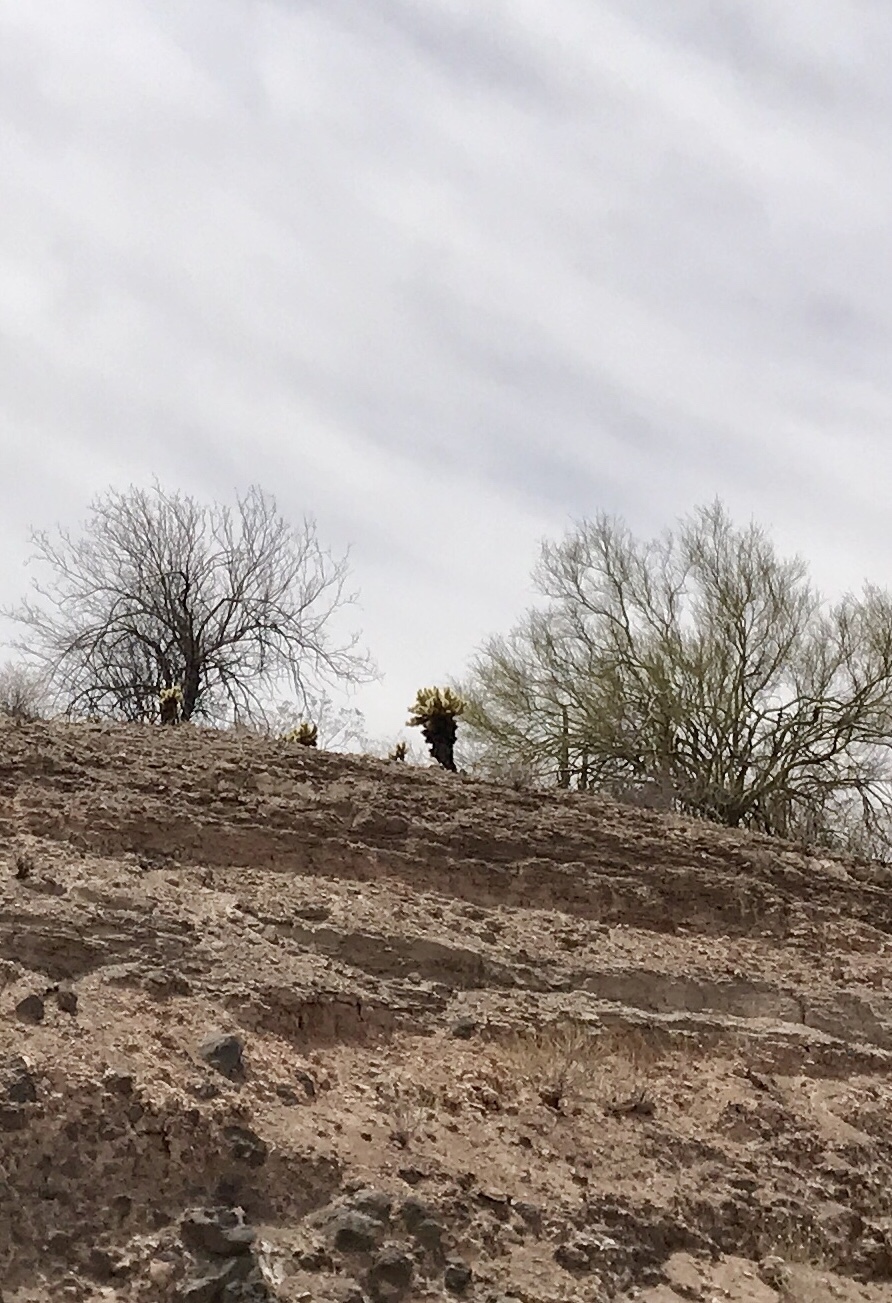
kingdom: Plantae
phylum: Tracheophyta
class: Magnoliopsida
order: Caryophyllales
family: Cactaceae
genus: Cylindropuntia
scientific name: Cylindropuntia fosbergii
